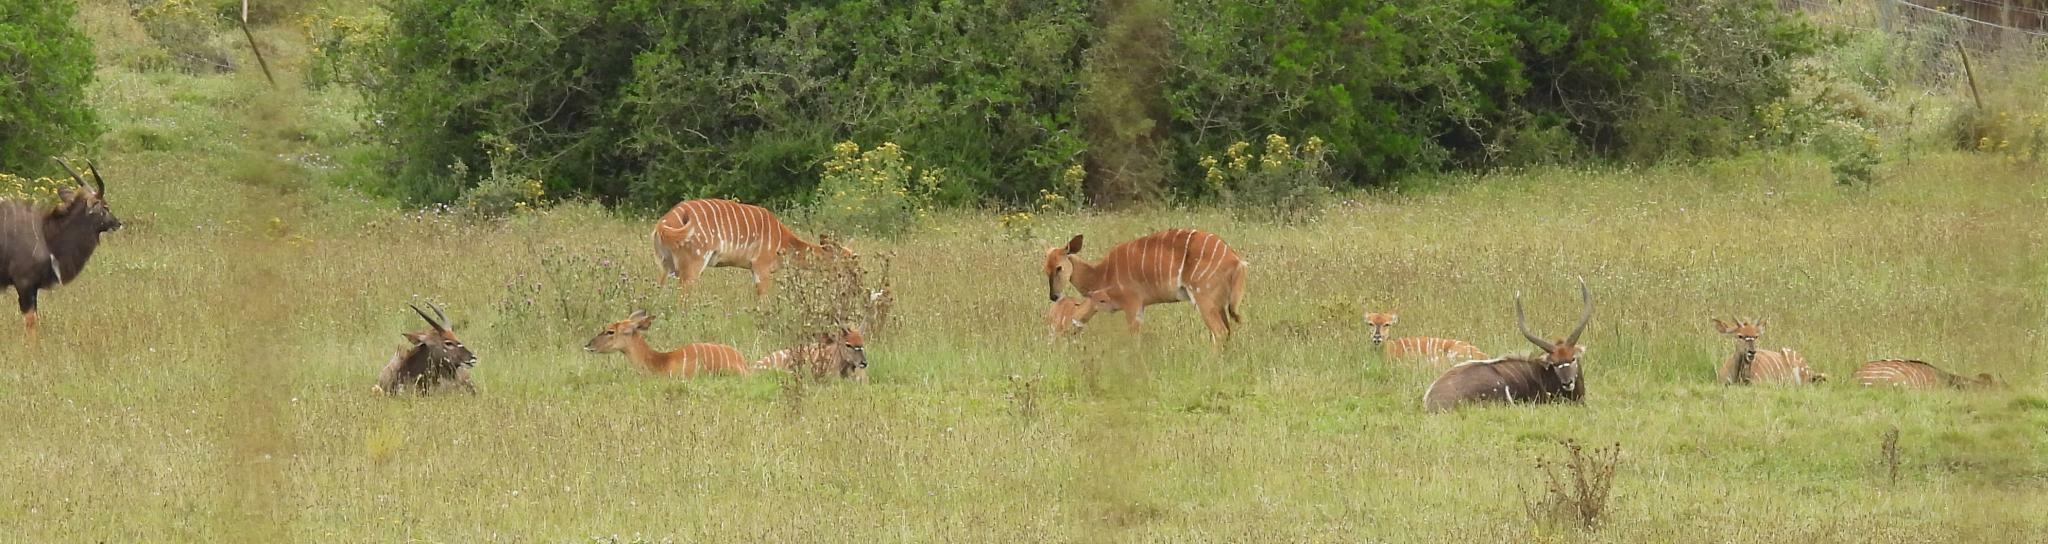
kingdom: Animalia
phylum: Chordata
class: Mammalia
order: Artiodactyla
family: Bovidae
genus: Tragelaphus
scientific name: Tragelaphus angasii
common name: Nyala
